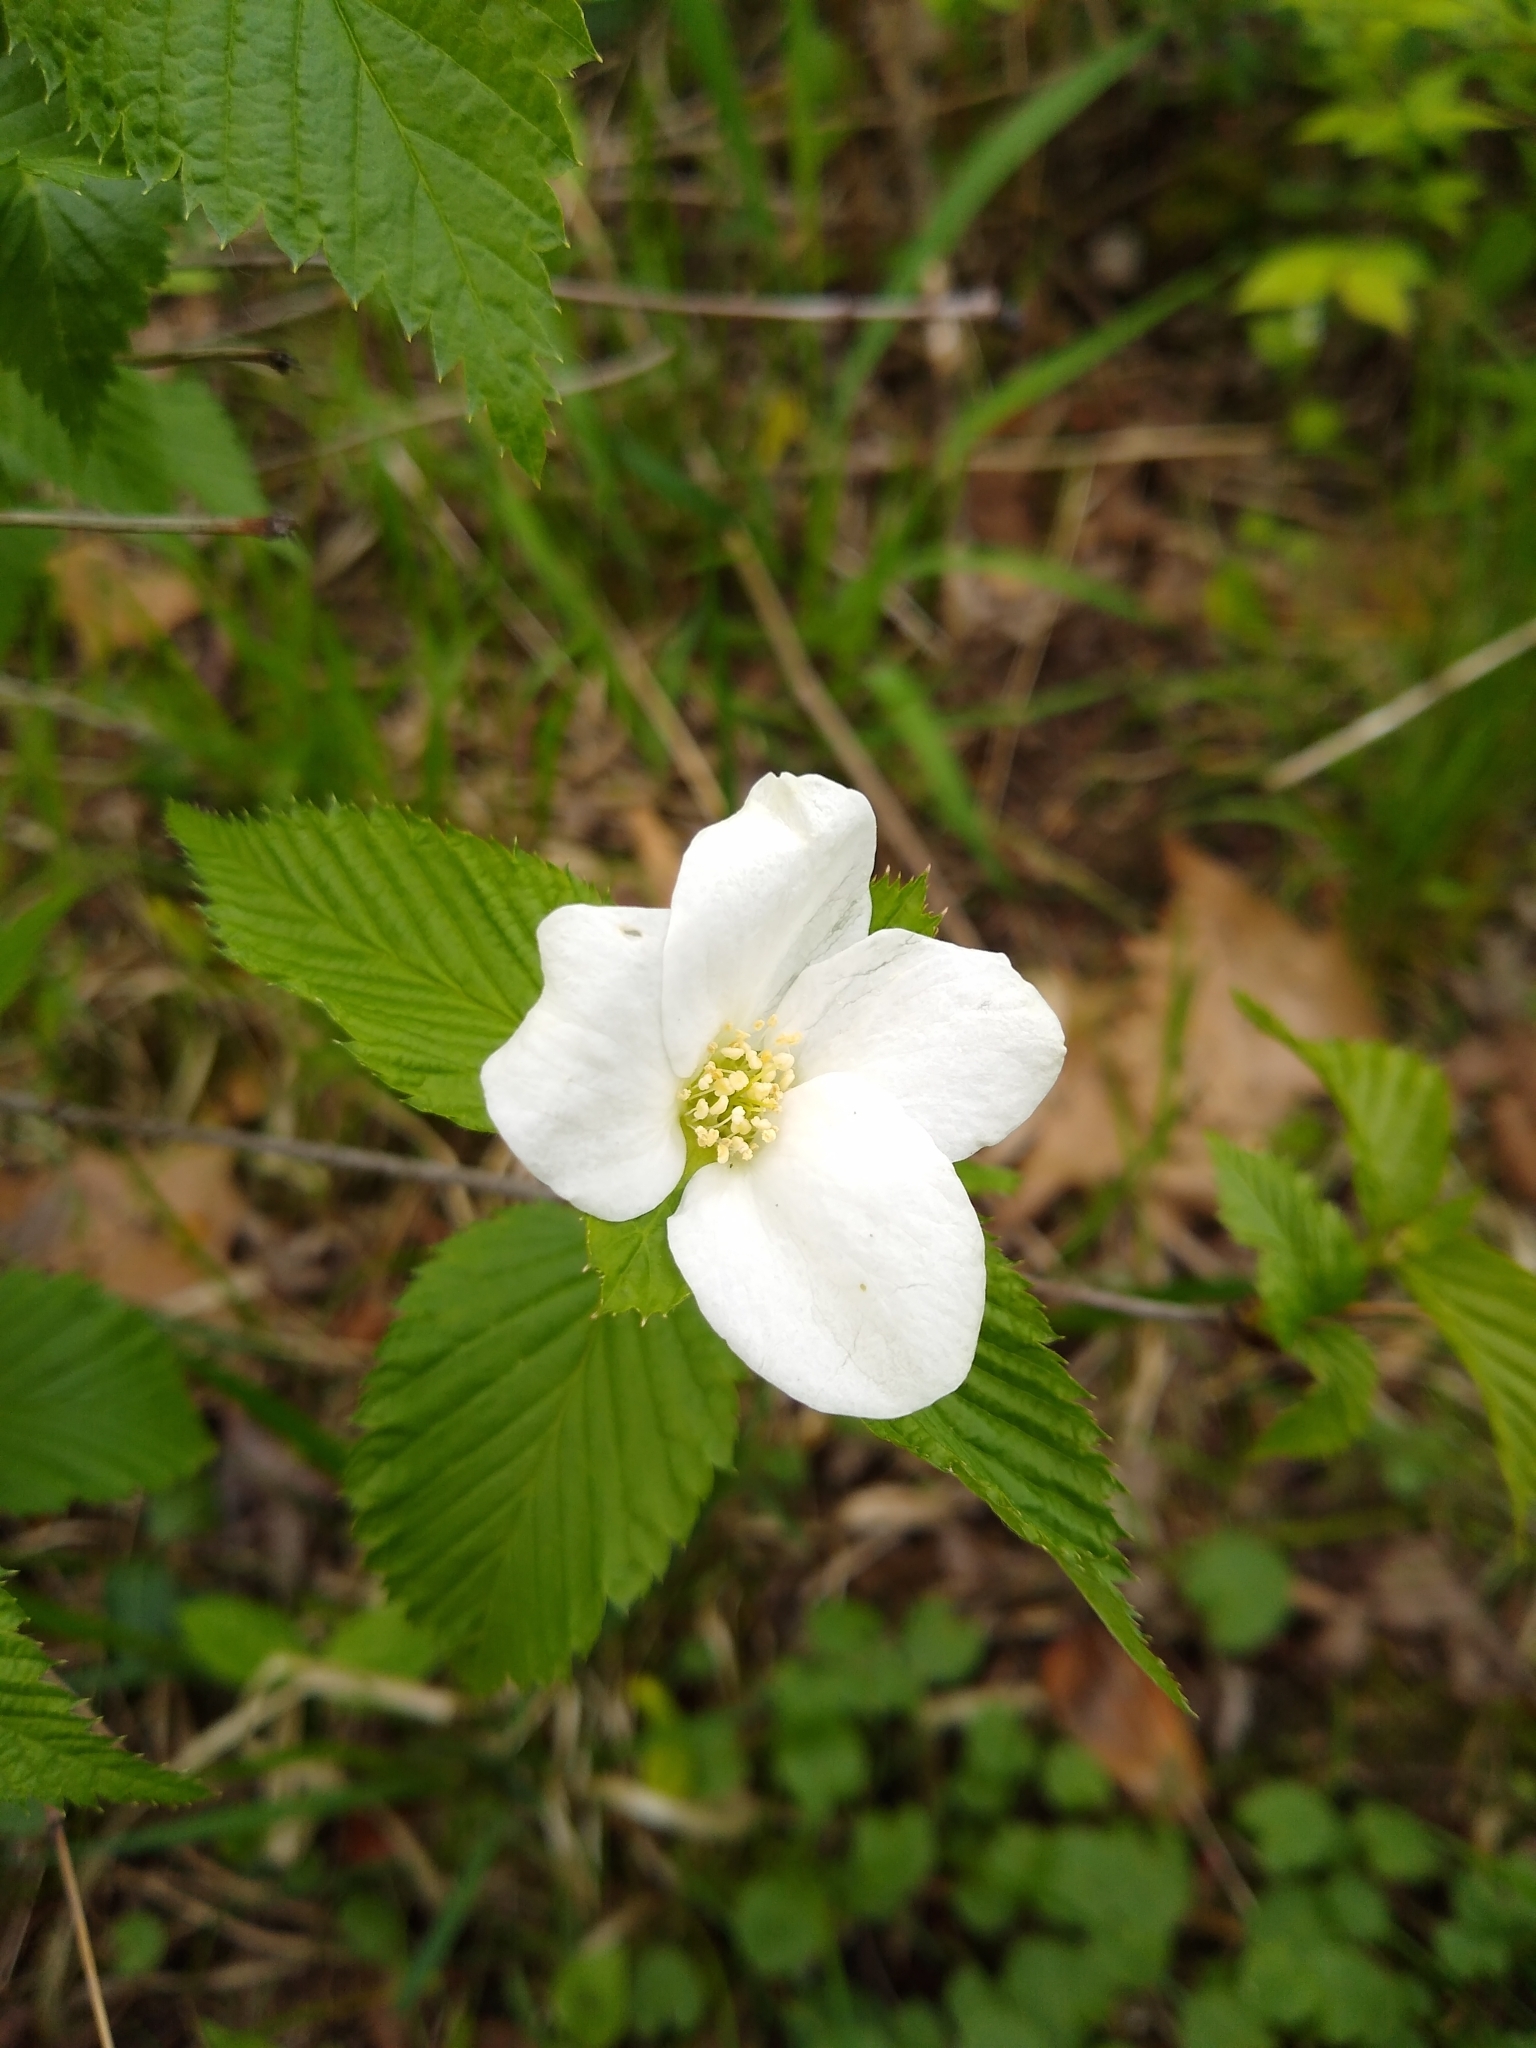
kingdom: Plantae
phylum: Tracheophyta
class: Magnoliopsida
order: Rosales
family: Rosaceae
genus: Rhodotypos
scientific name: Rhodotypos scandens
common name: Jetbead
